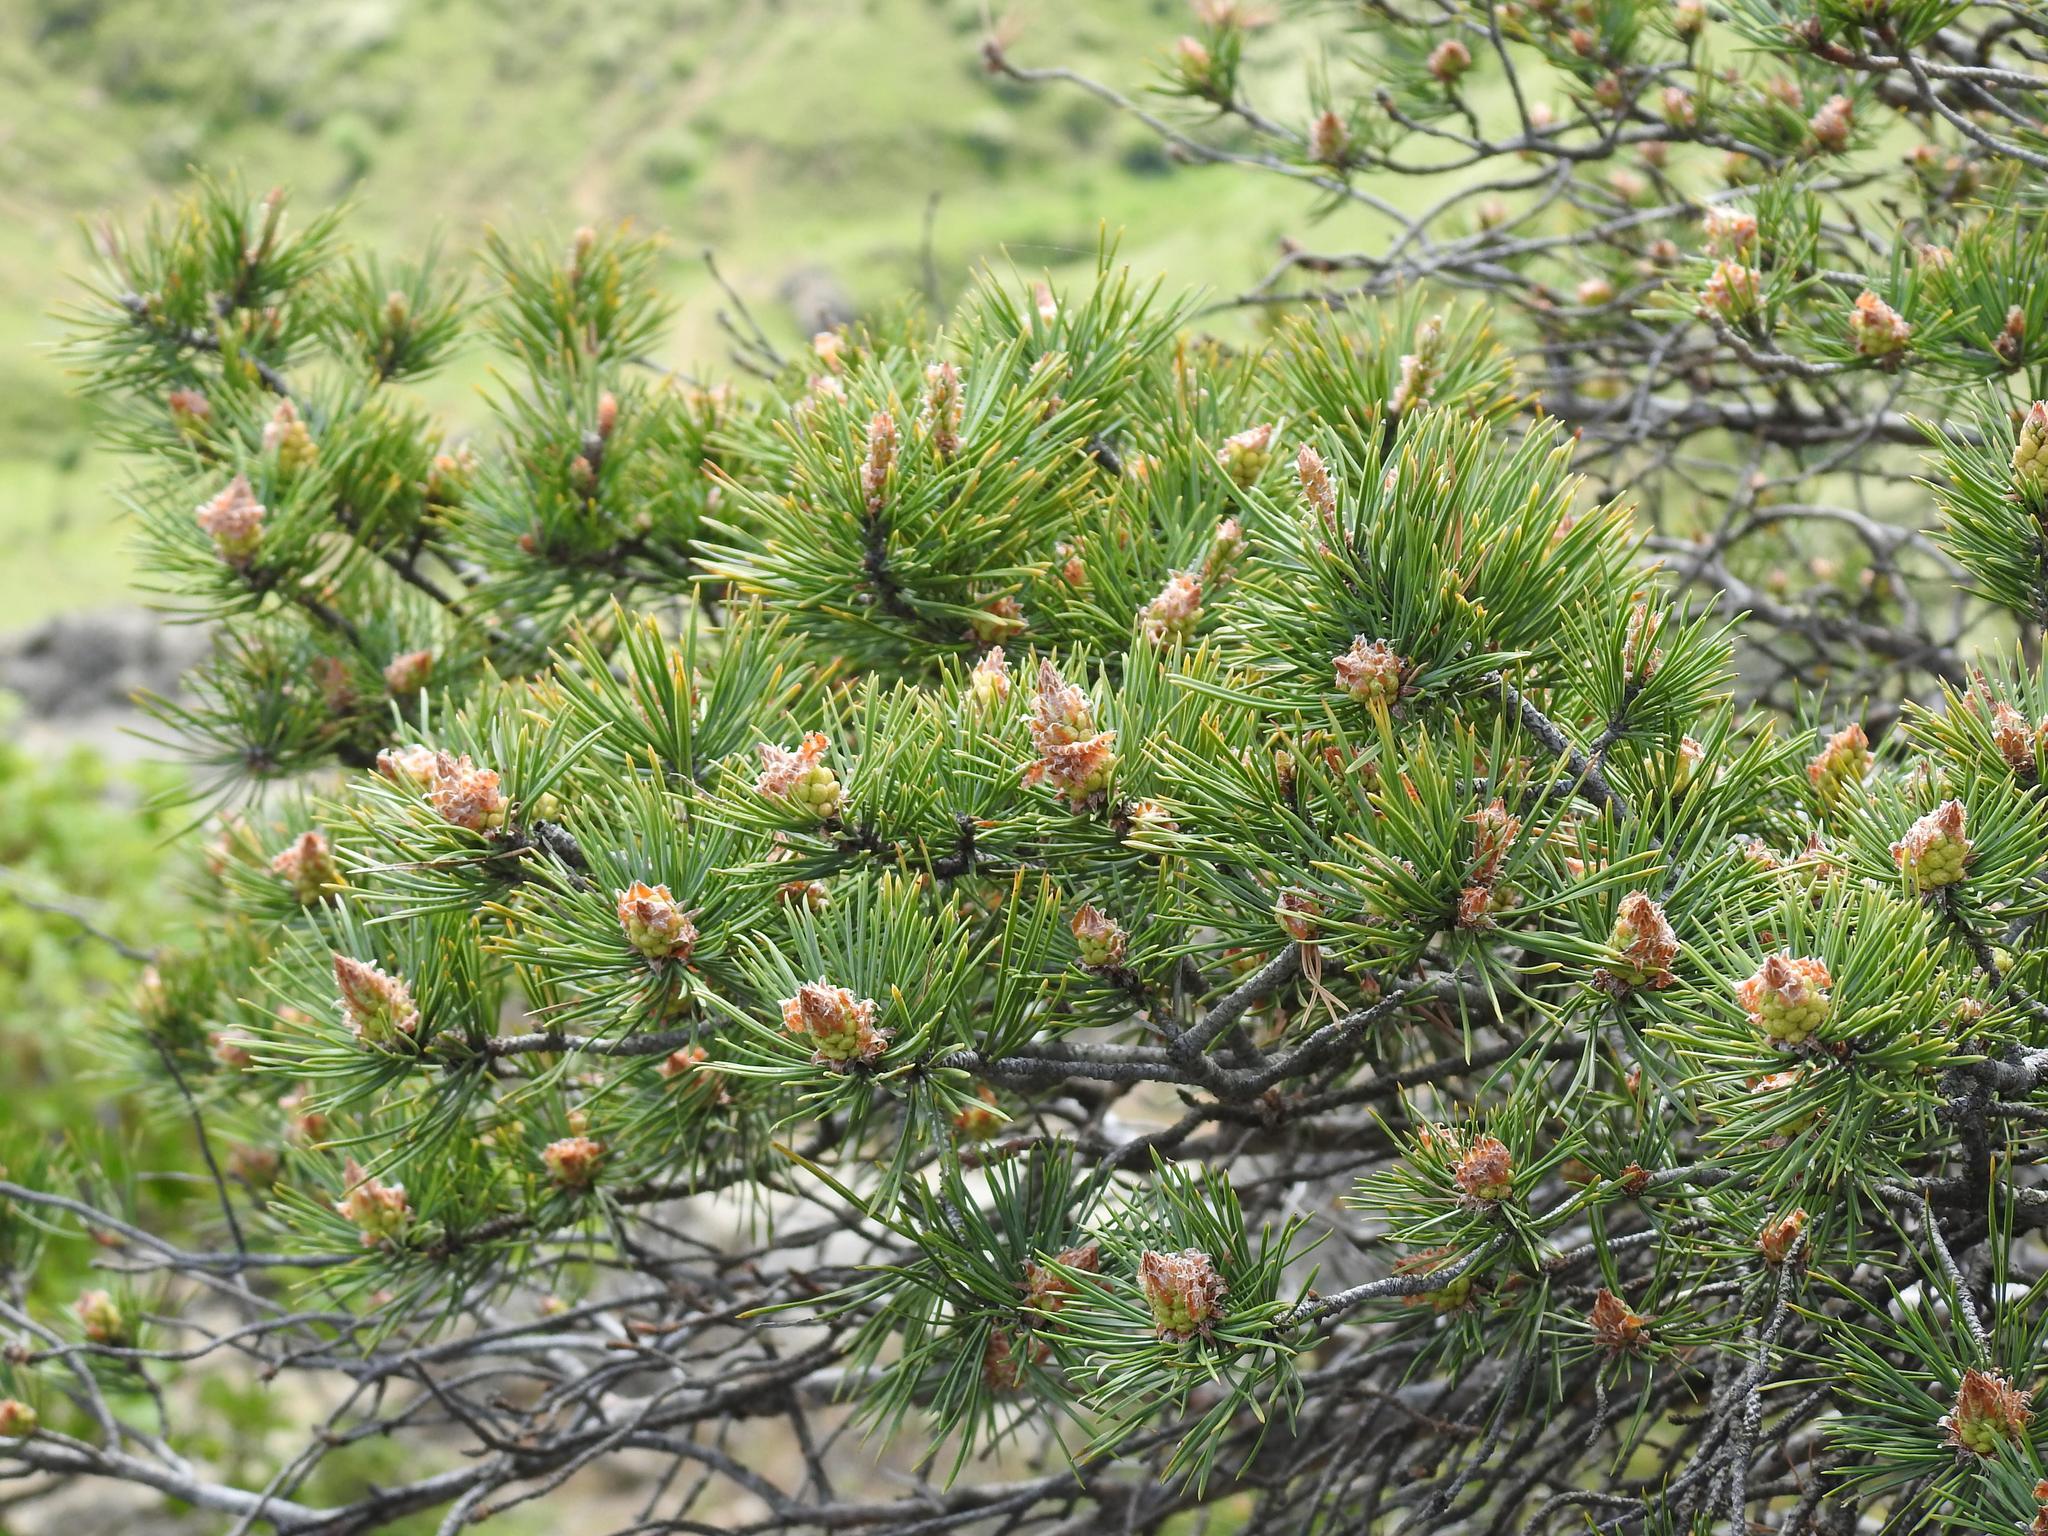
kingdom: Plantae
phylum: Tracheophyta
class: Pinopsida
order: Pinales
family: Pinaceae
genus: Pinus
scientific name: Pinus sylvestris
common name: Scots pine
